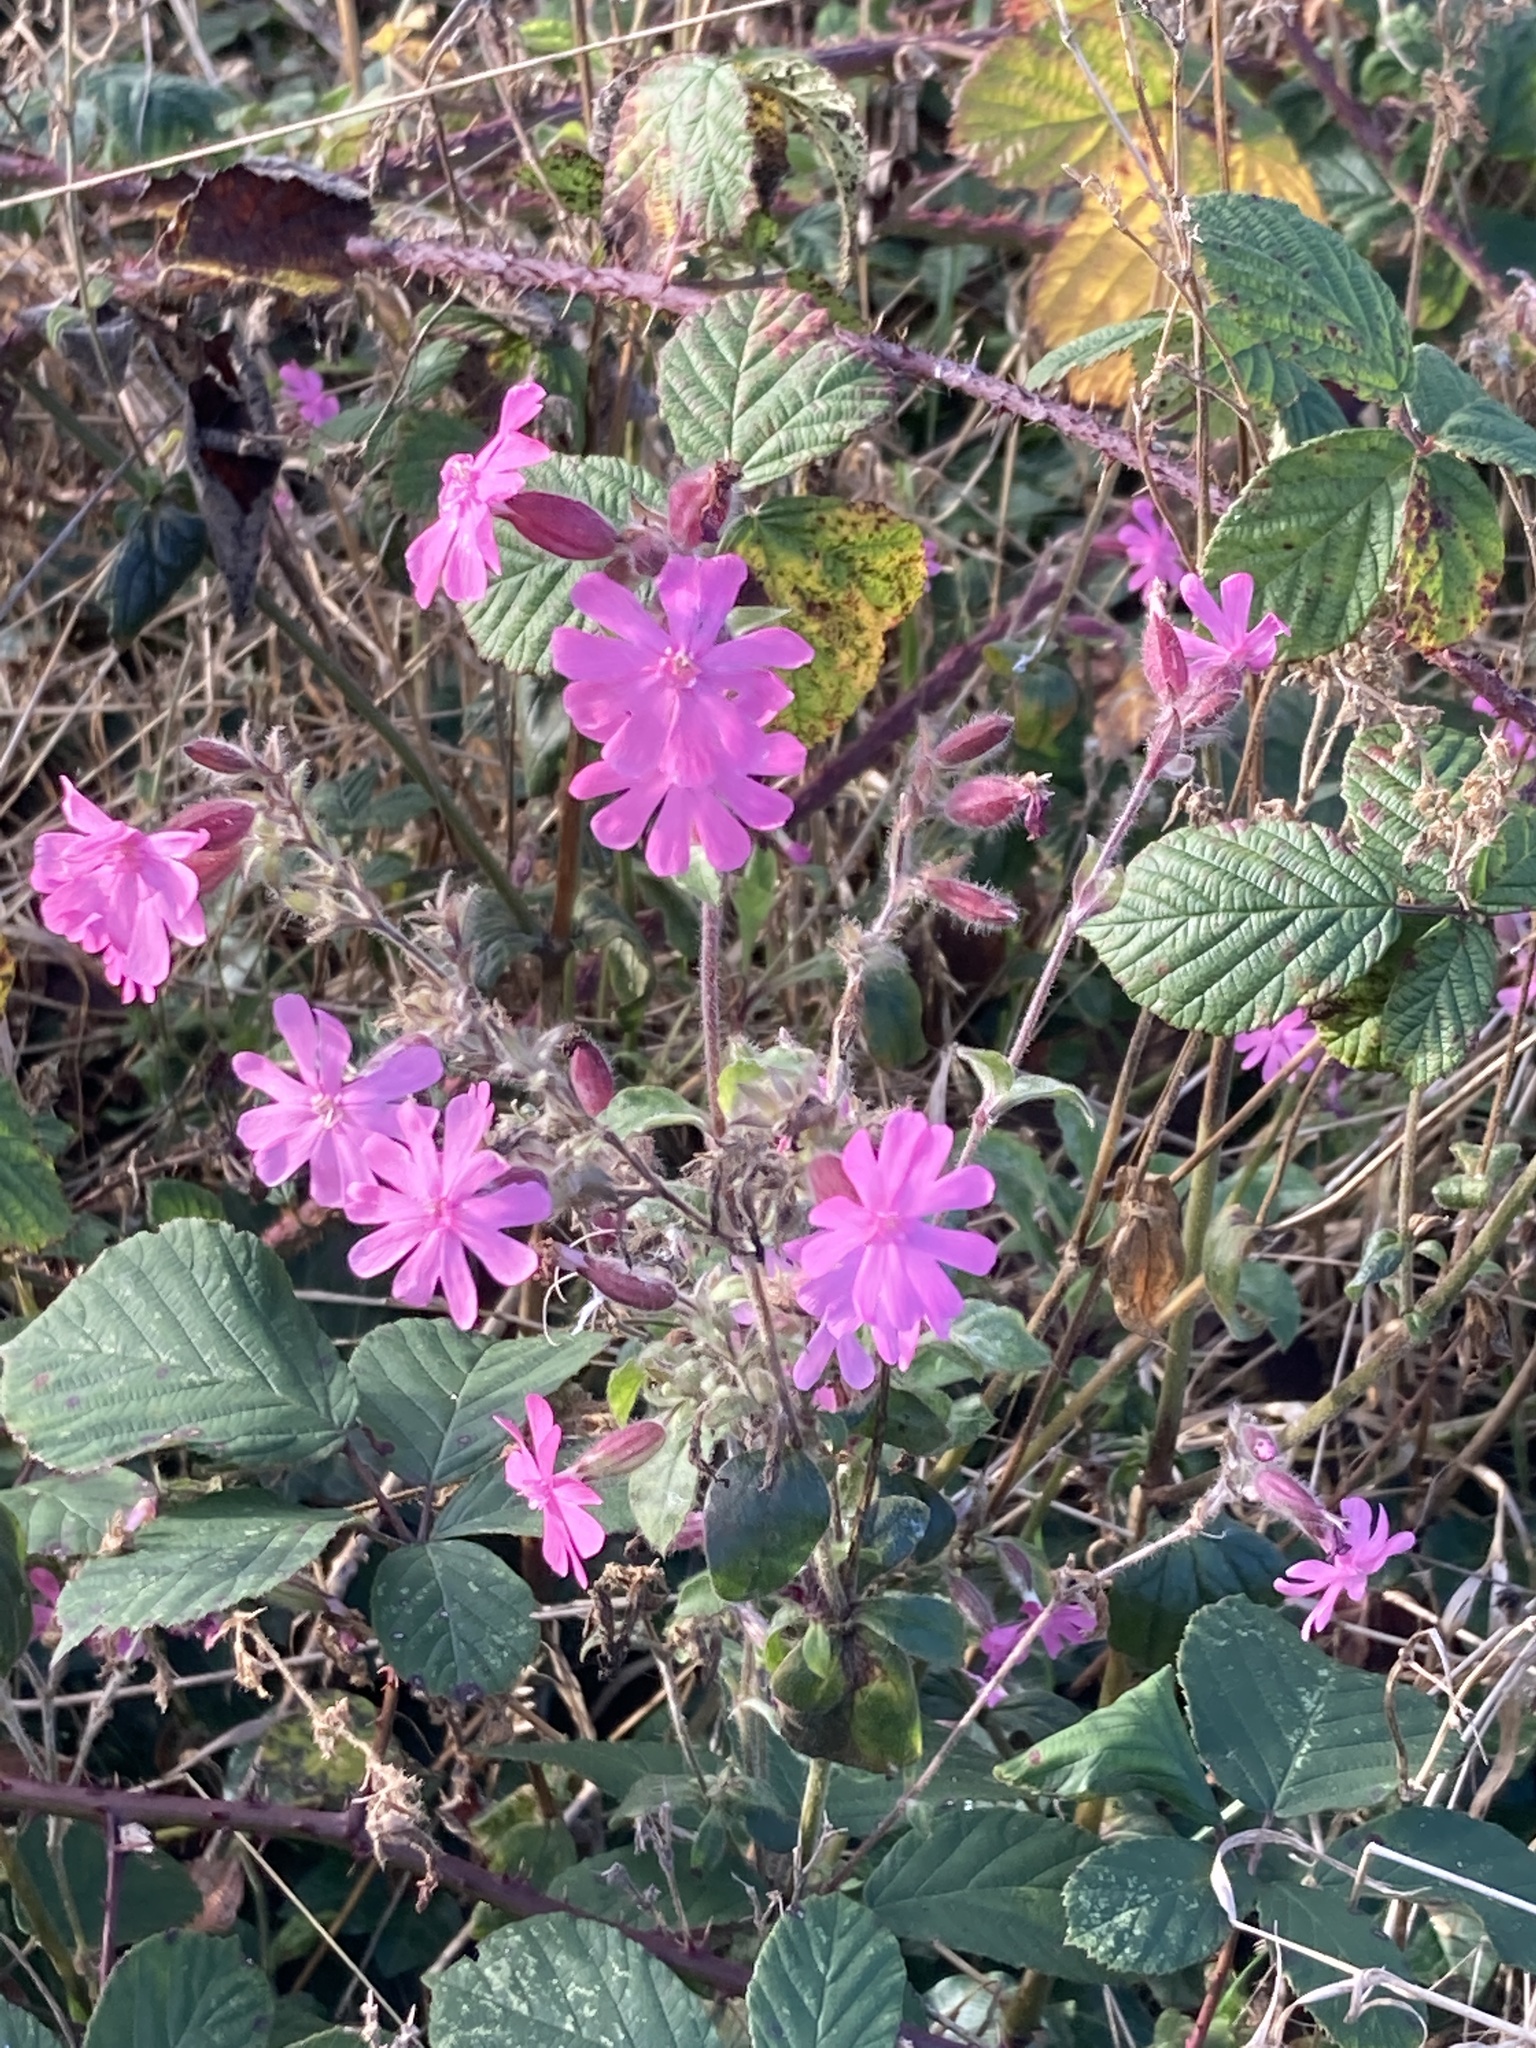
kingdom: Plantae
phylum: Tracheophyta
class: Magnoliopsida
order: Caryophyllales
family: Caryophyllaceae
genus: Silene
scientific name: Silene dioica
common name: Red campion
